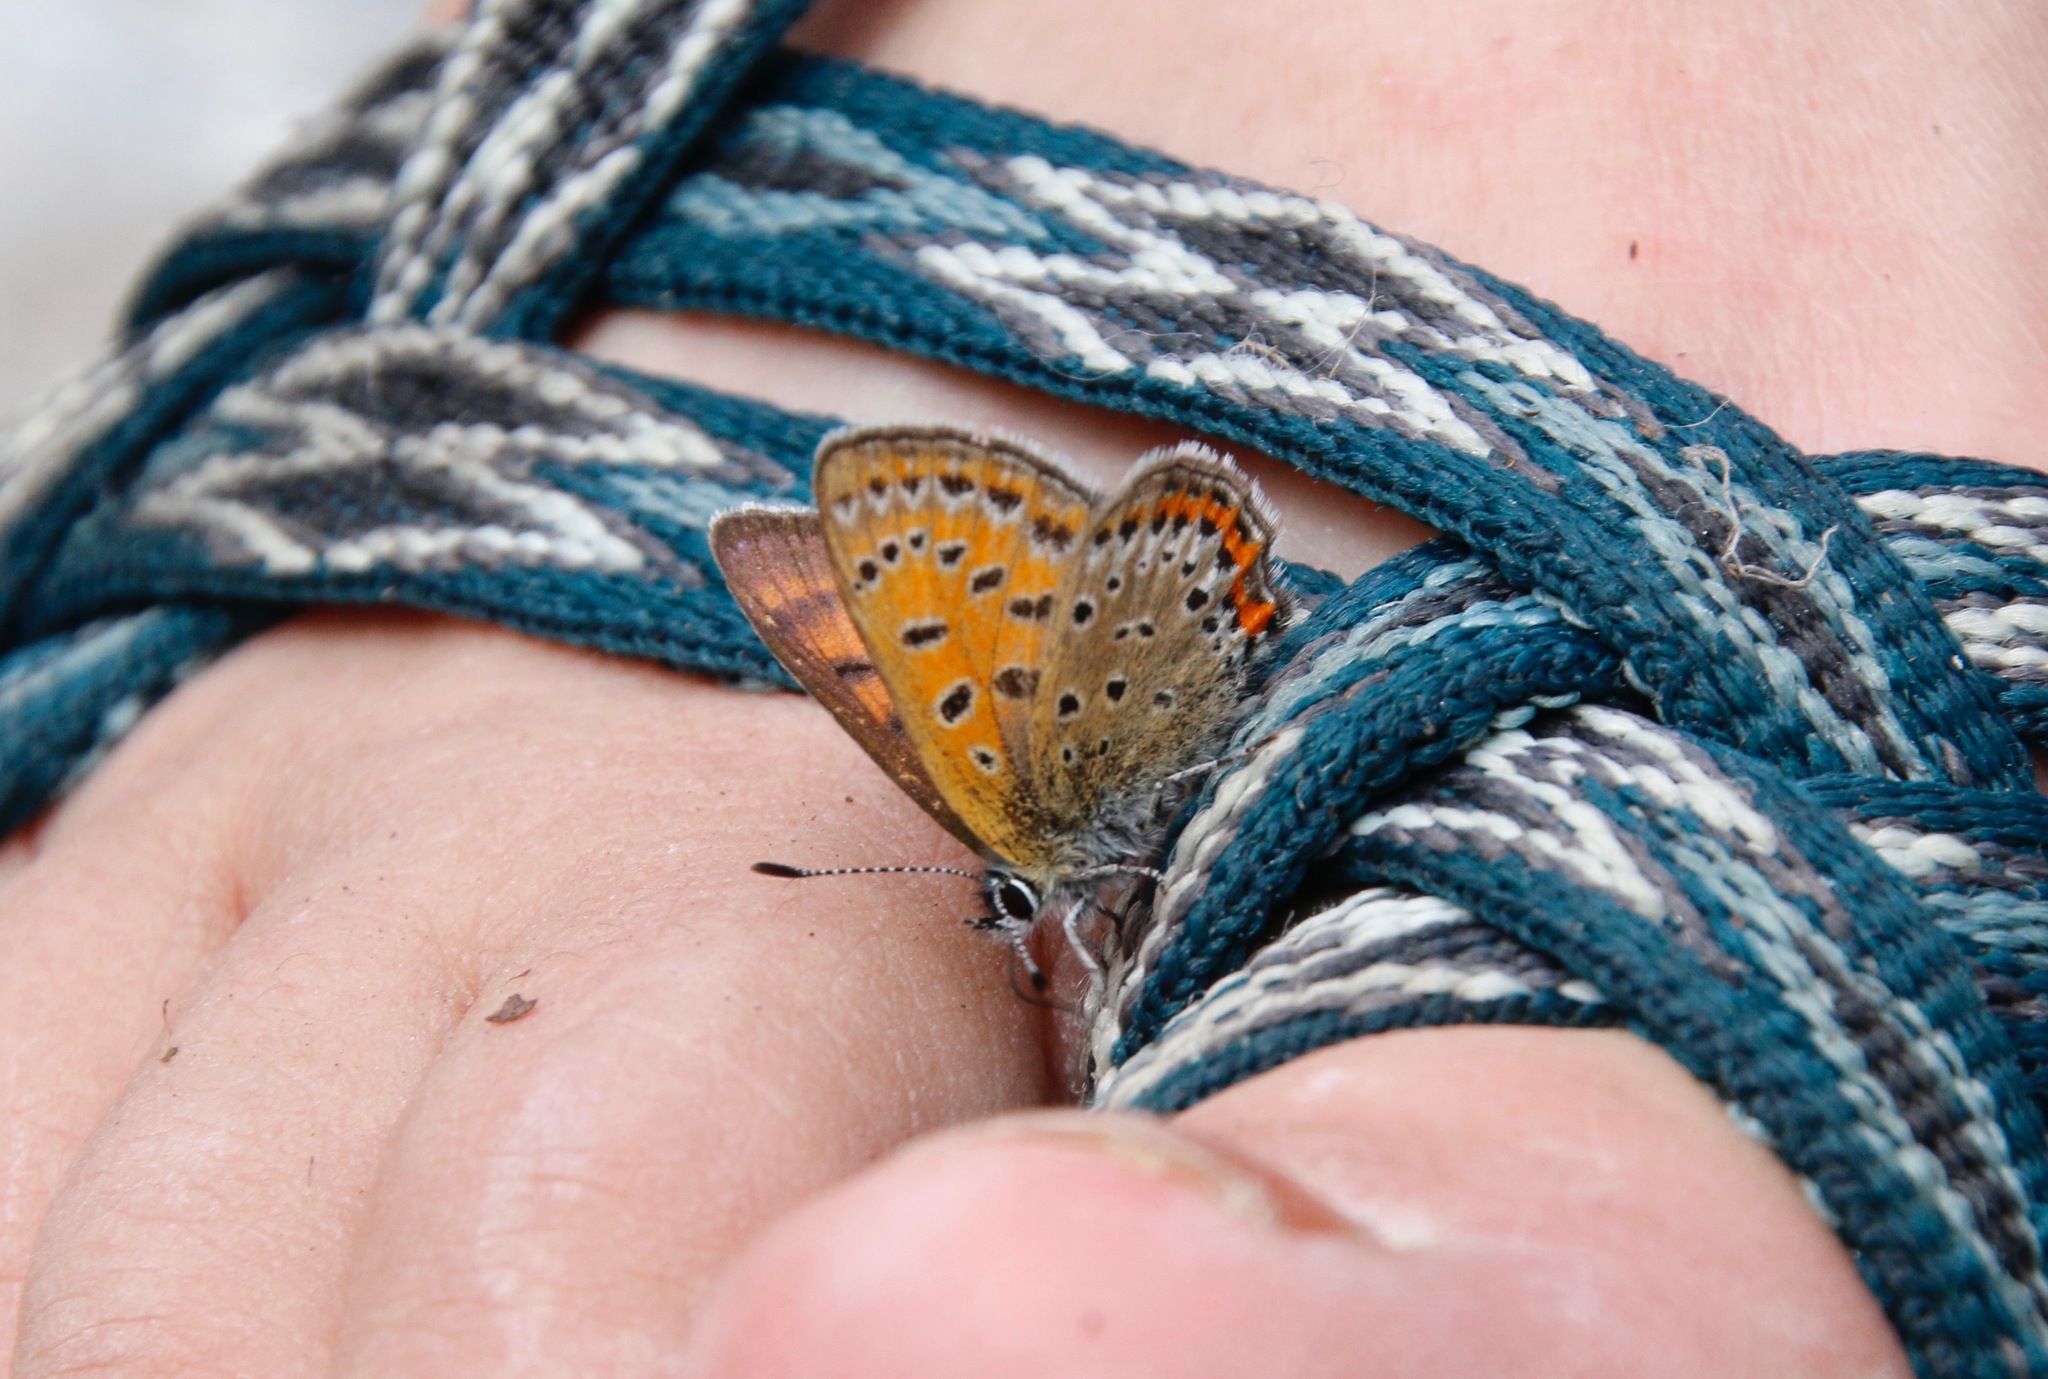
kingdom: Animalia
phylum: Arthropoda
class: Insecta
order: Lepidoptera
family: Lycaenidae
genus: Helleia
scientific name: Helleia helle
